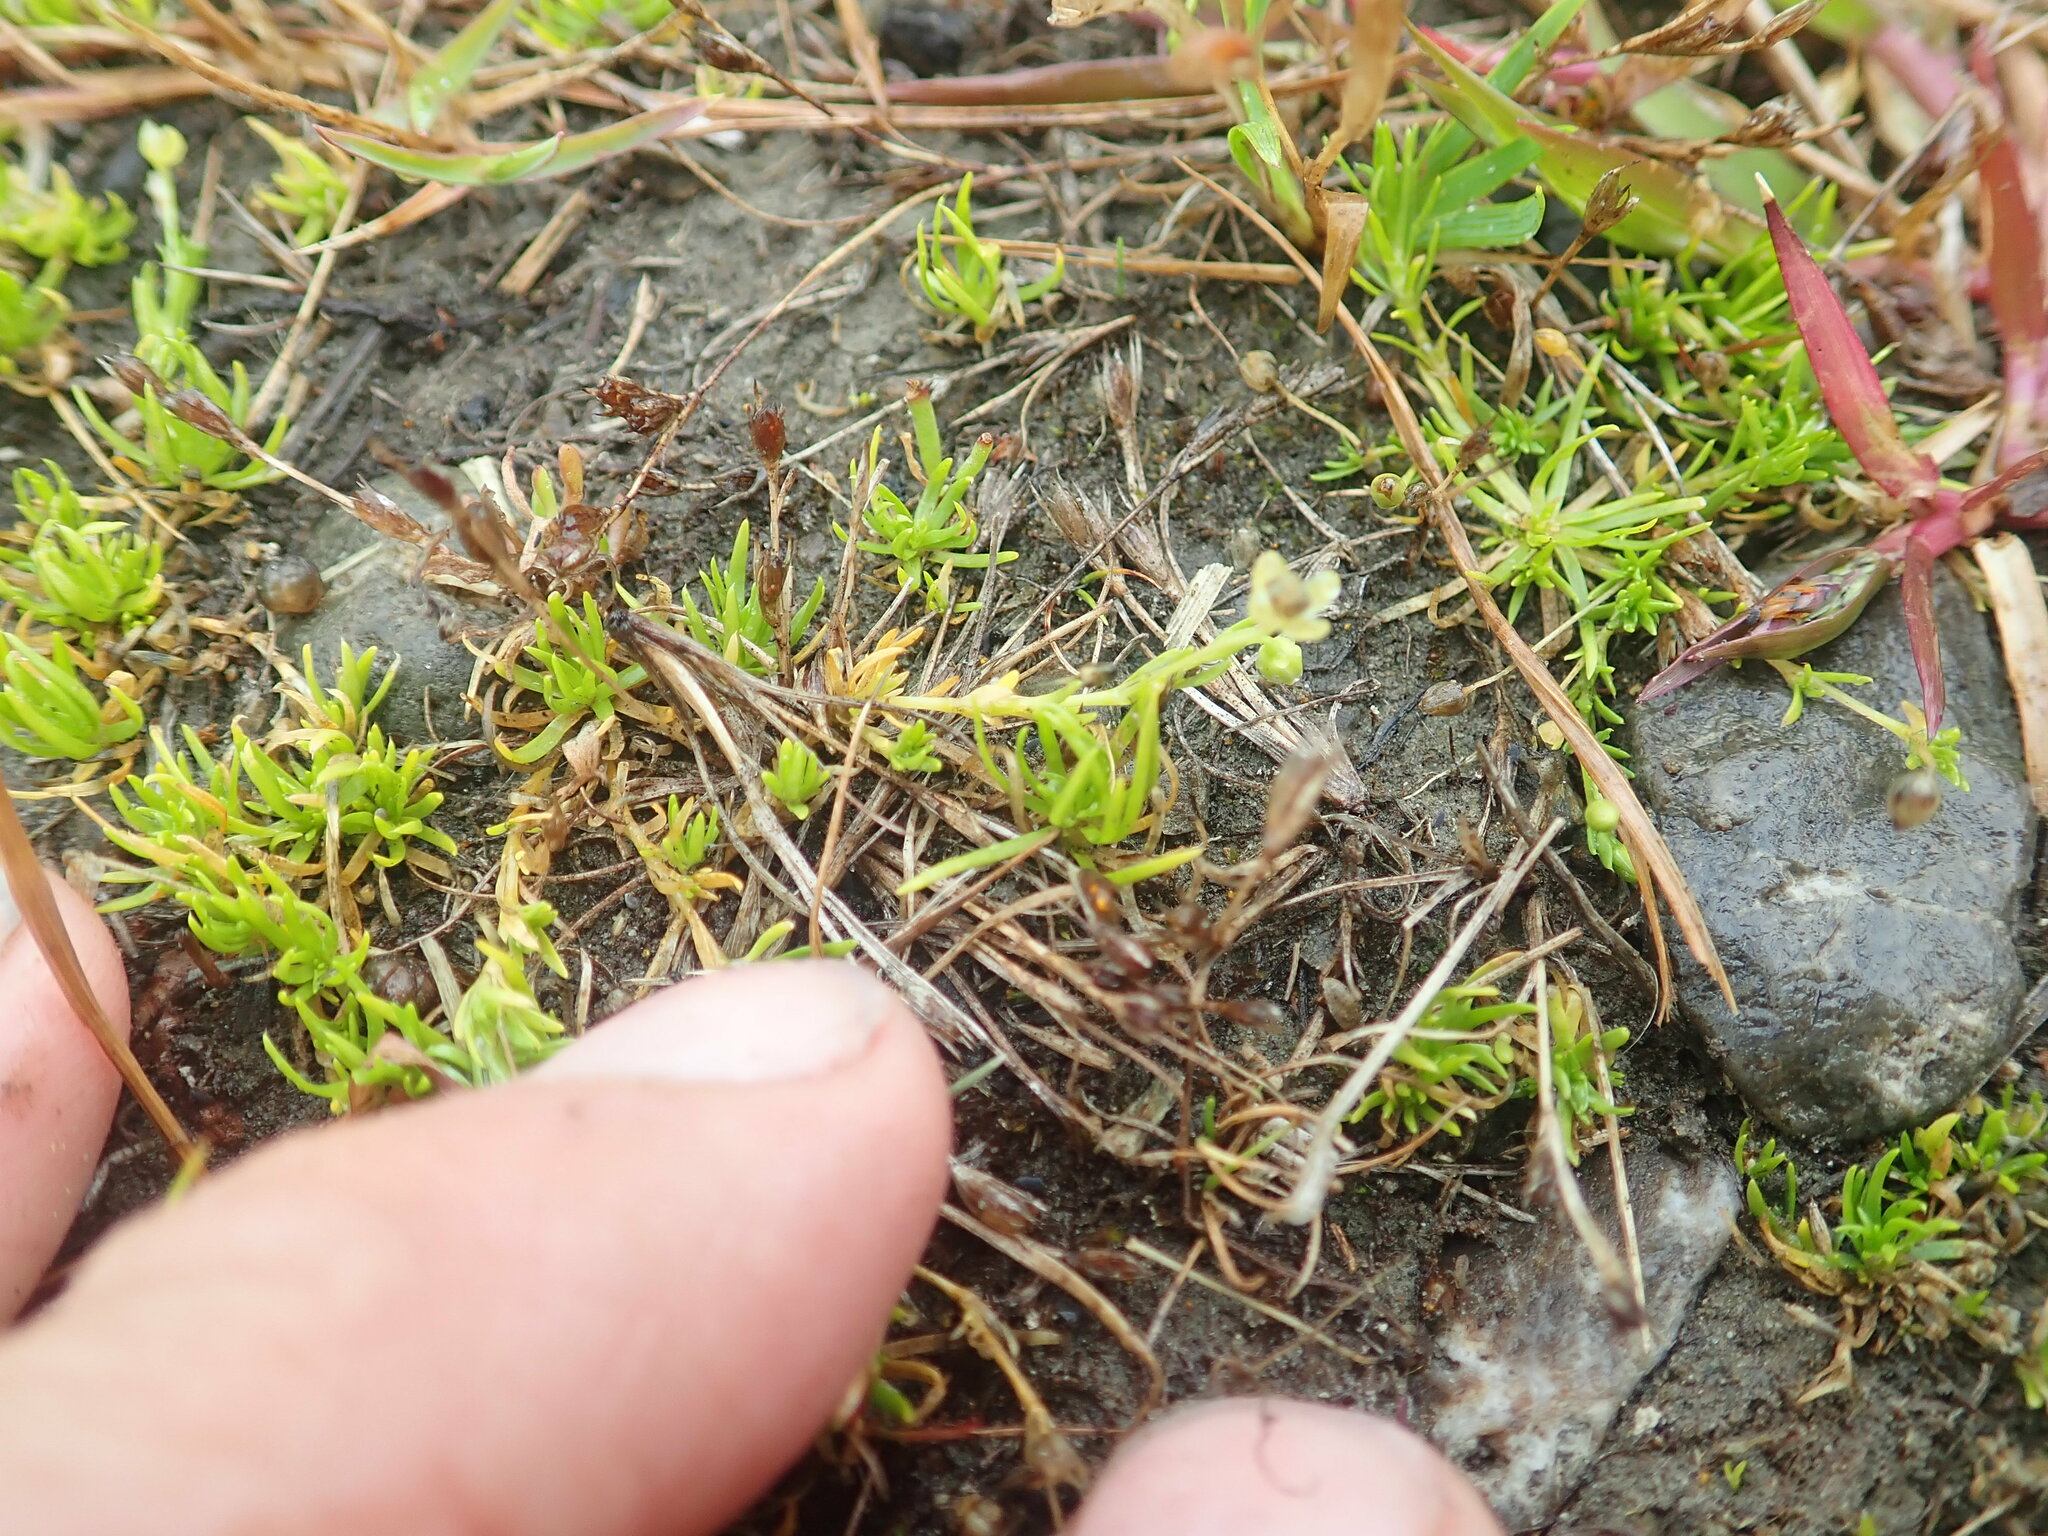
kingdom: Plantae
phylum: Tracheophyta
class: Magnoliopsida
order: Caryophyllales
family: Caryophyllaceae
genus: Sagina
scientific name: Sagina procumbens
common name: Procumbent pearlwort
